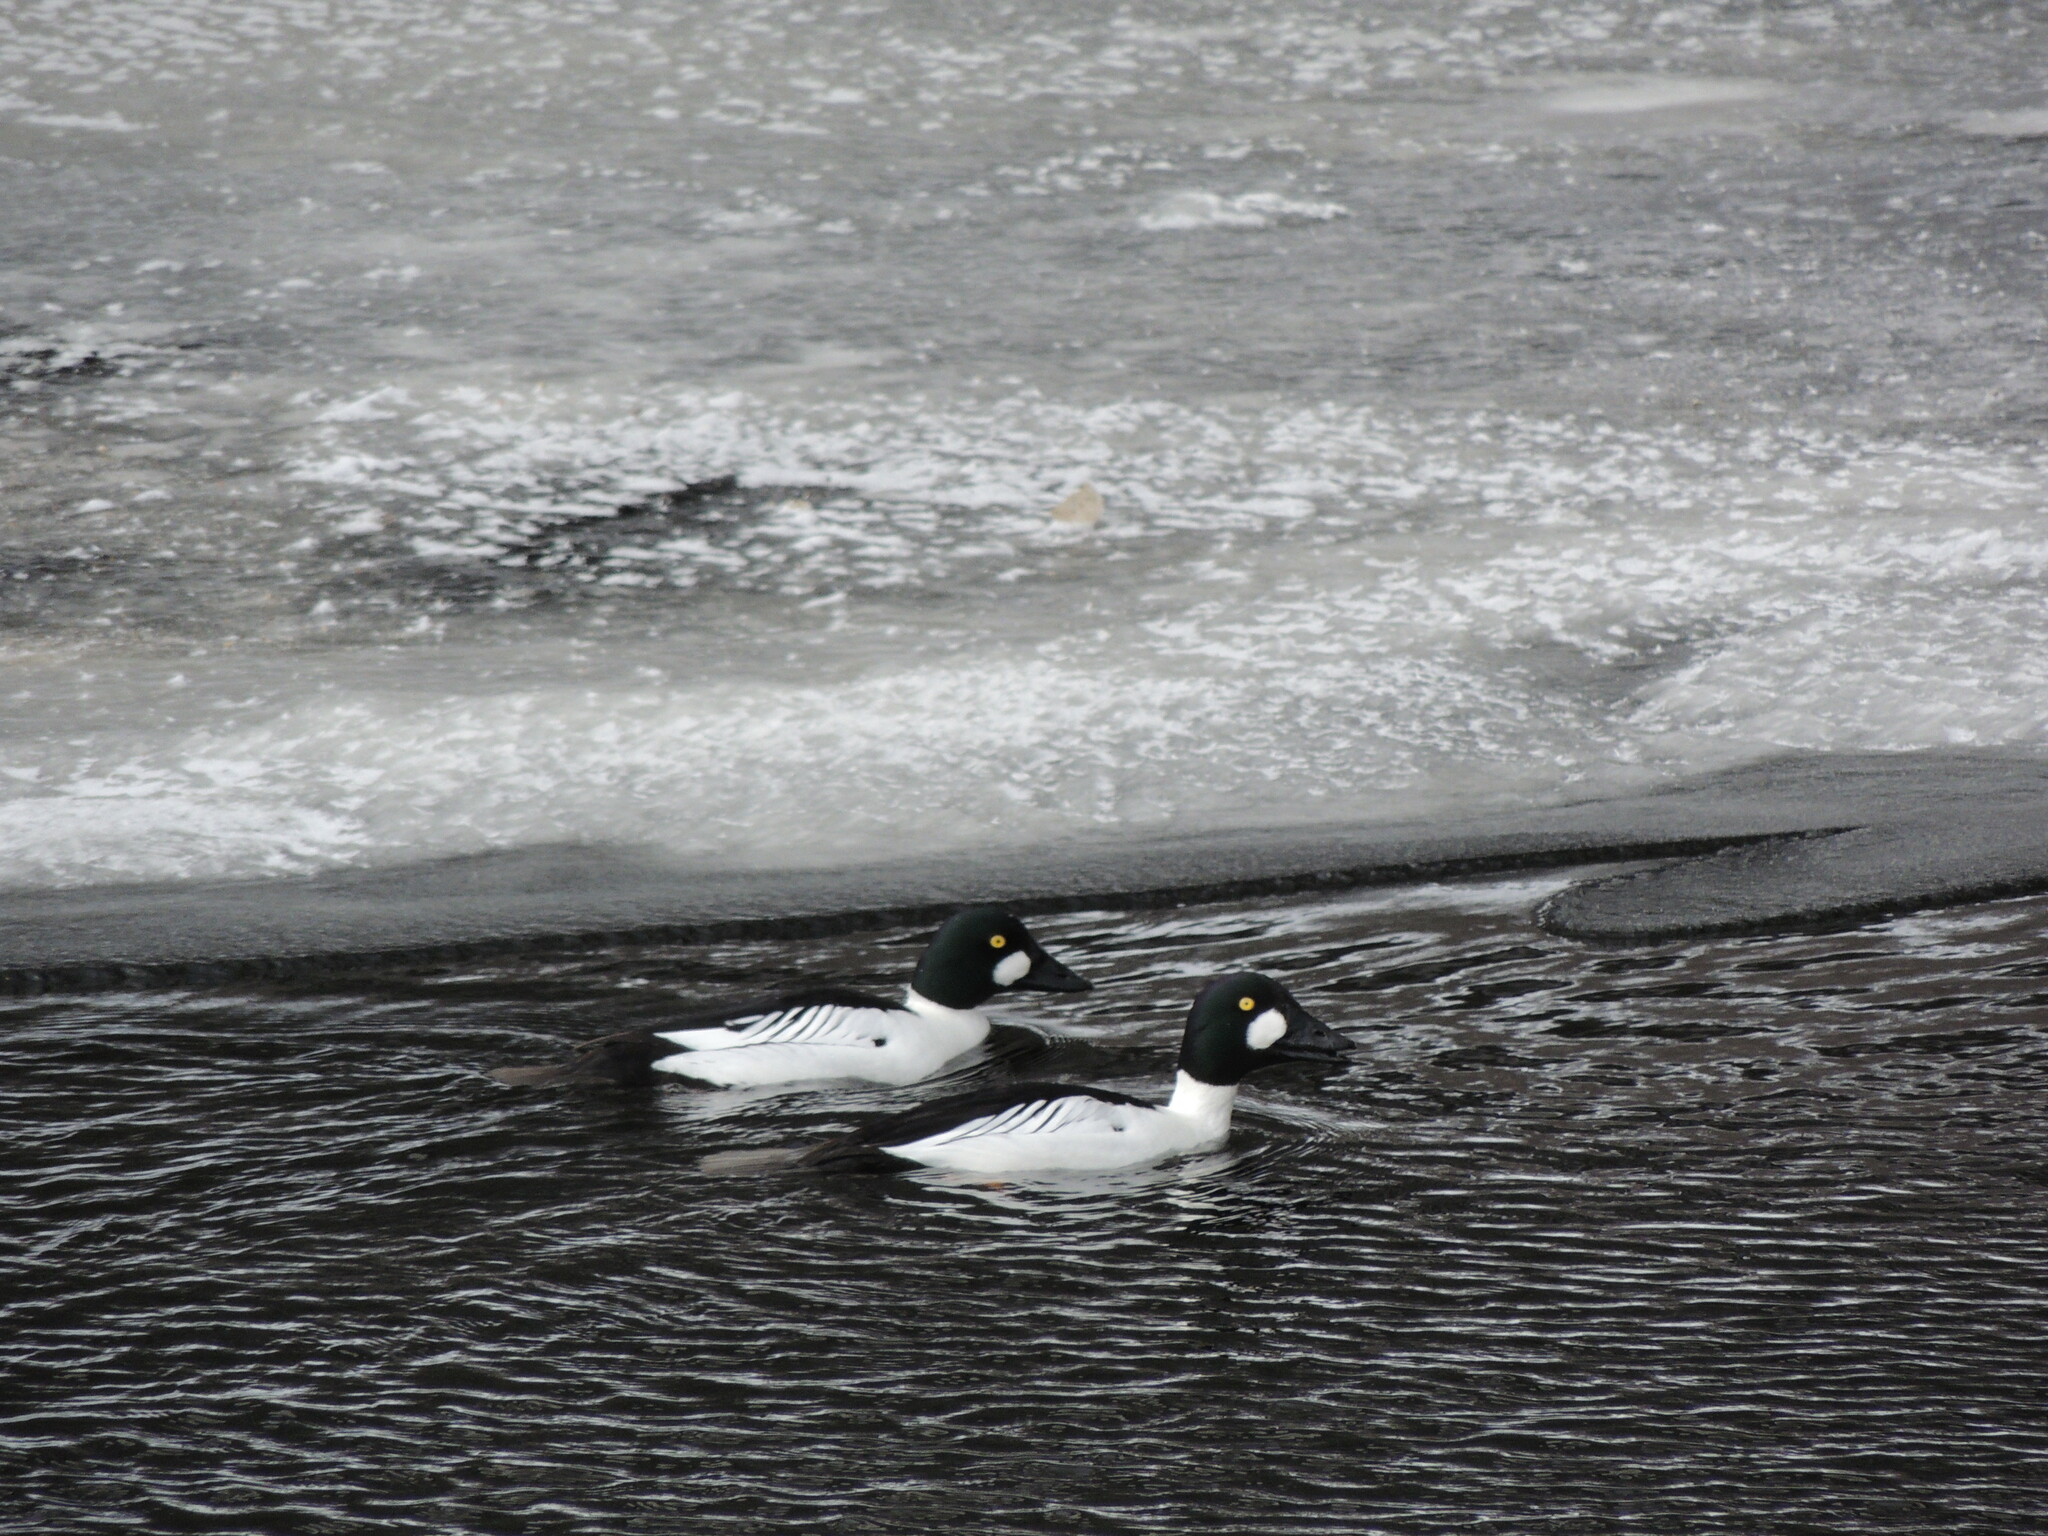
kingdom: Animalia
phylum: Chordata
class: Aves
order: Anseriformes
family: Anatidae
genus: Bucephala
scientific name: Bucephala clangula
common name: Common goldeneye
